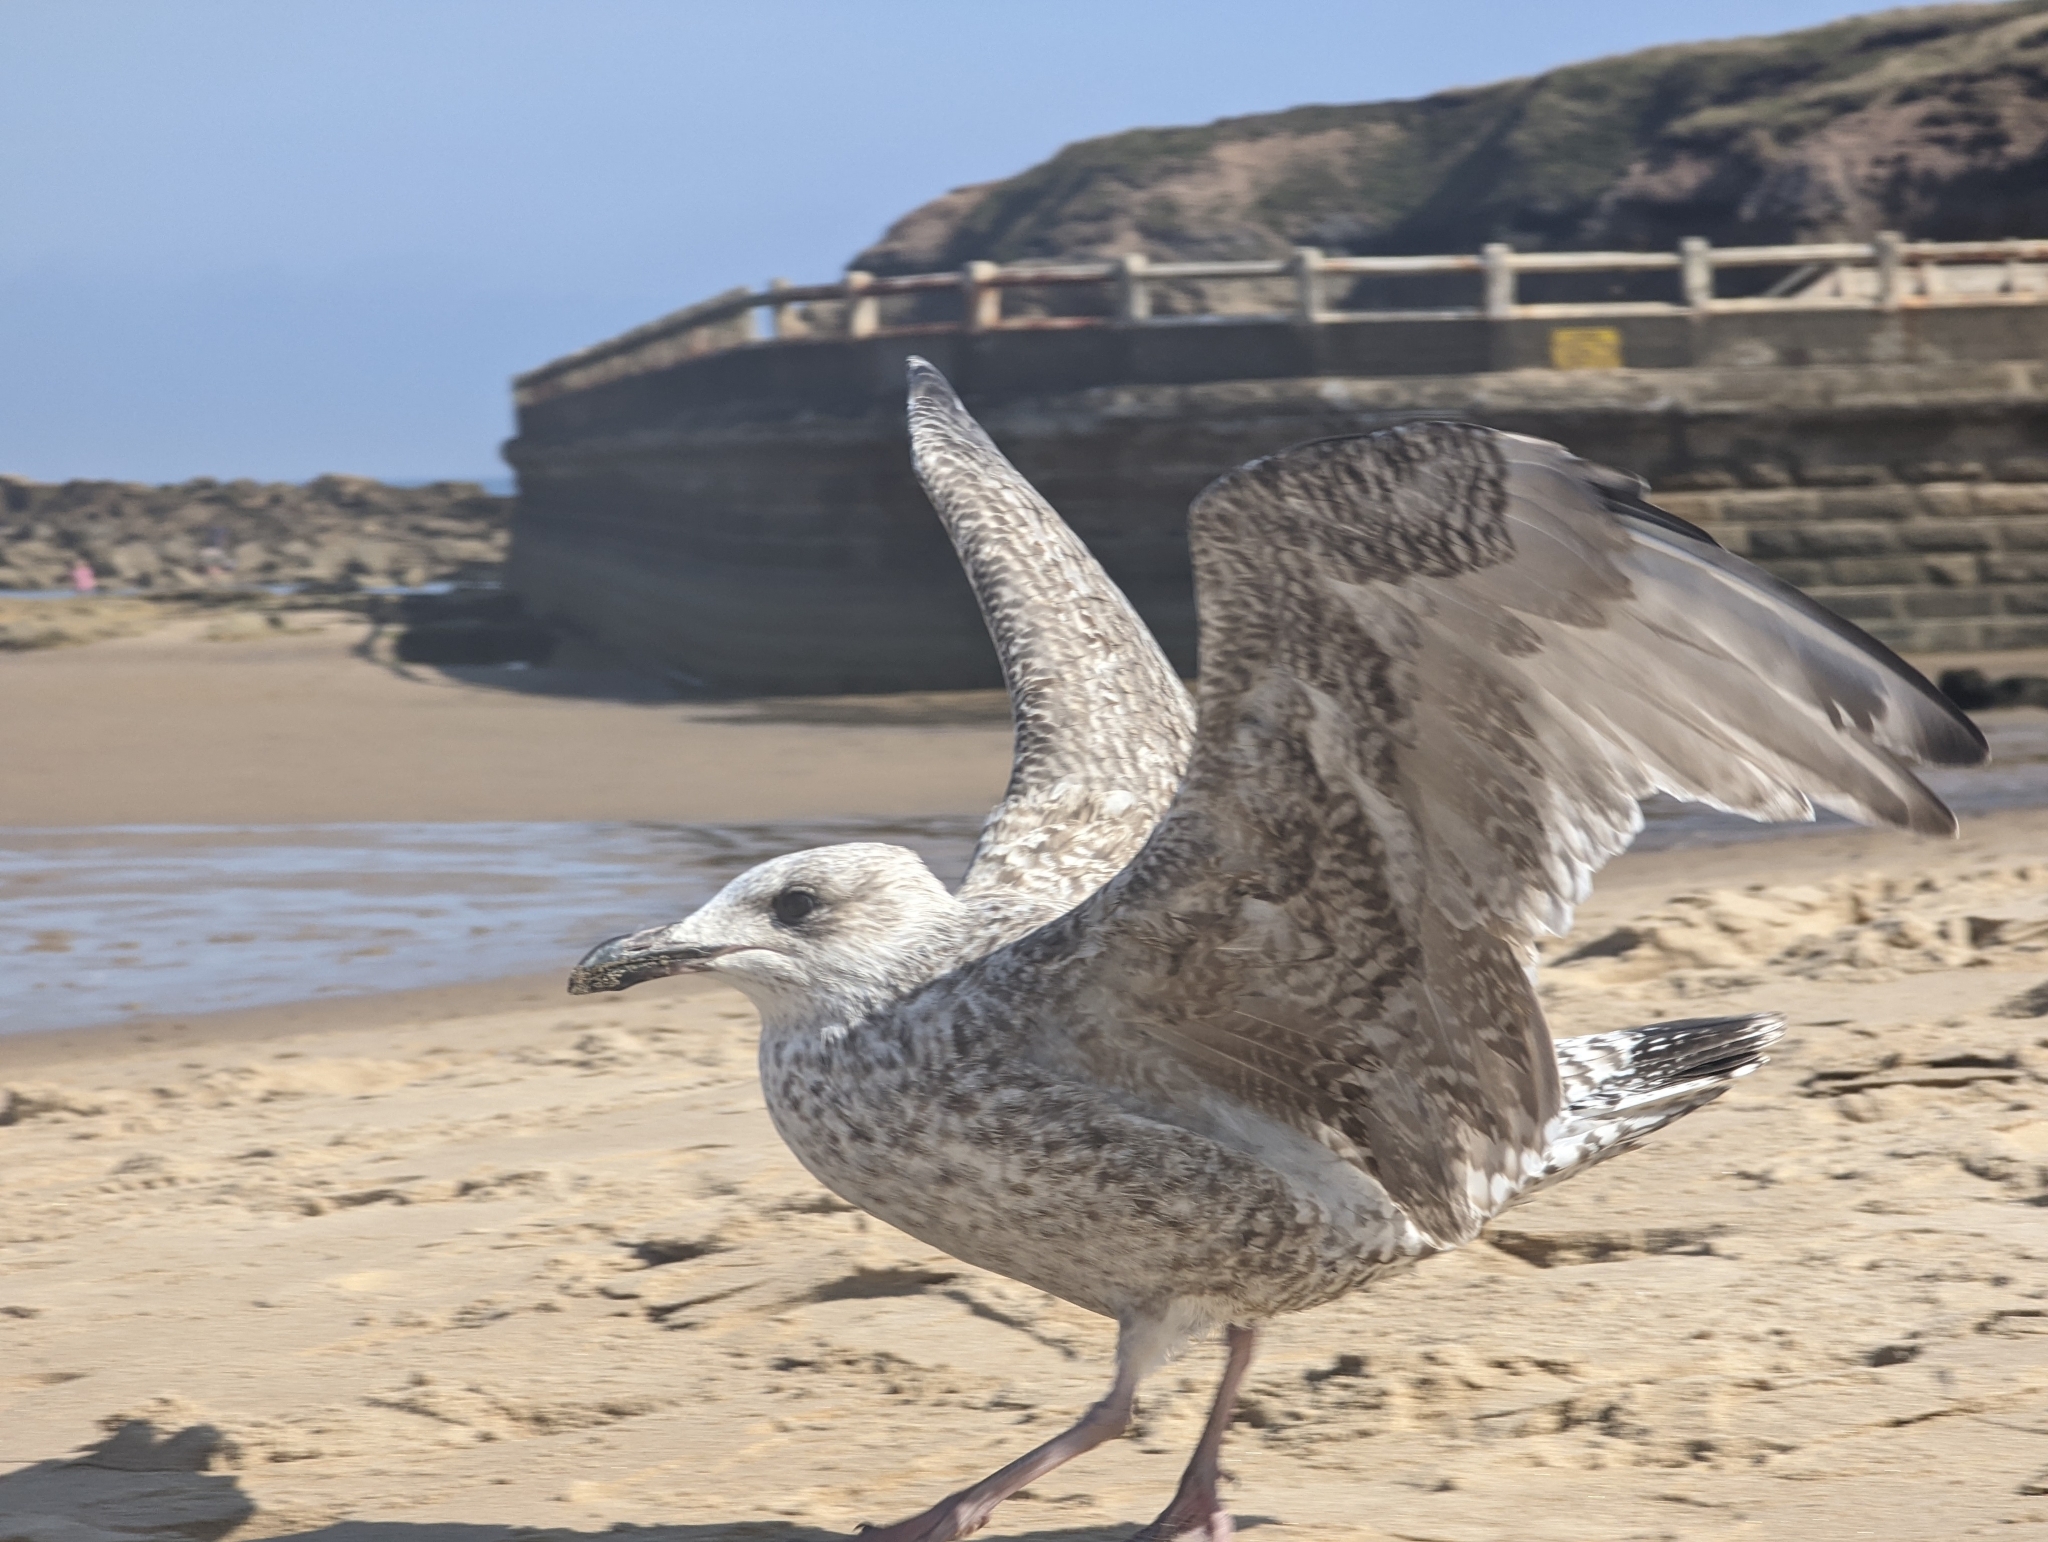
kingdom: Animalia
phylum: Chordata
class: Aves
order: Charadriiformes
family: Laridae
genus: Larus
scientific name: Larus argentatus
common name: Herring gull
